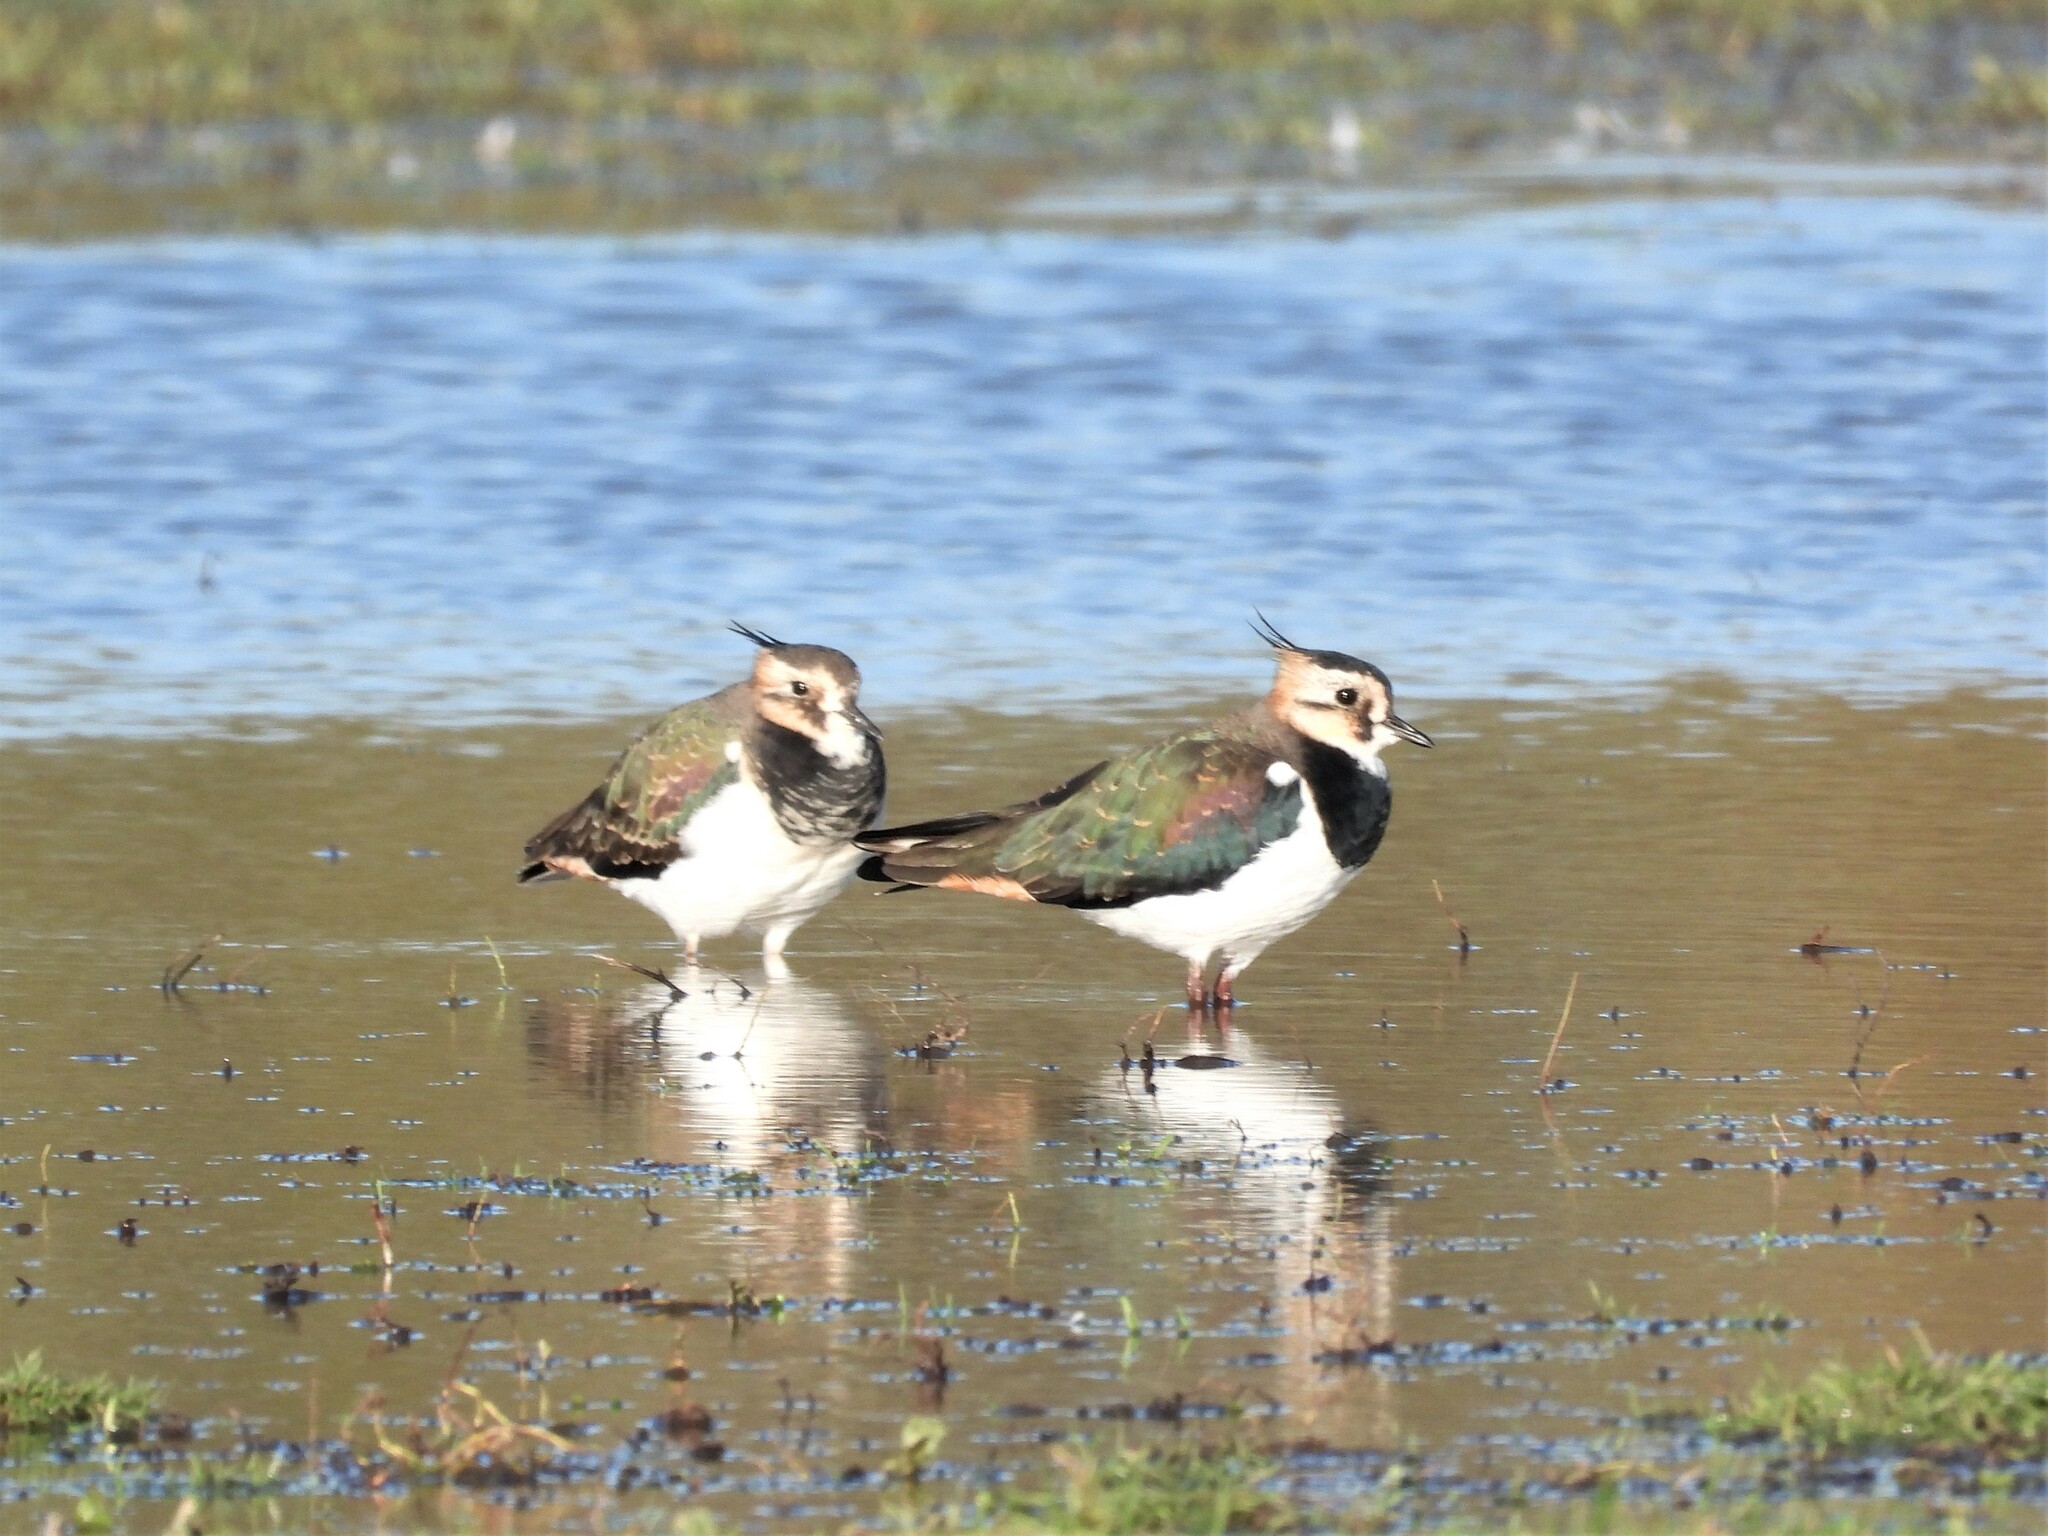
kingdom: Animalia
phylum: Chordata
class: Aves
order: Charadriiformes
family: Charadriidae
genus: Vanellus
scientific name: Vanellus vanellus
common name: Northern lapwing
